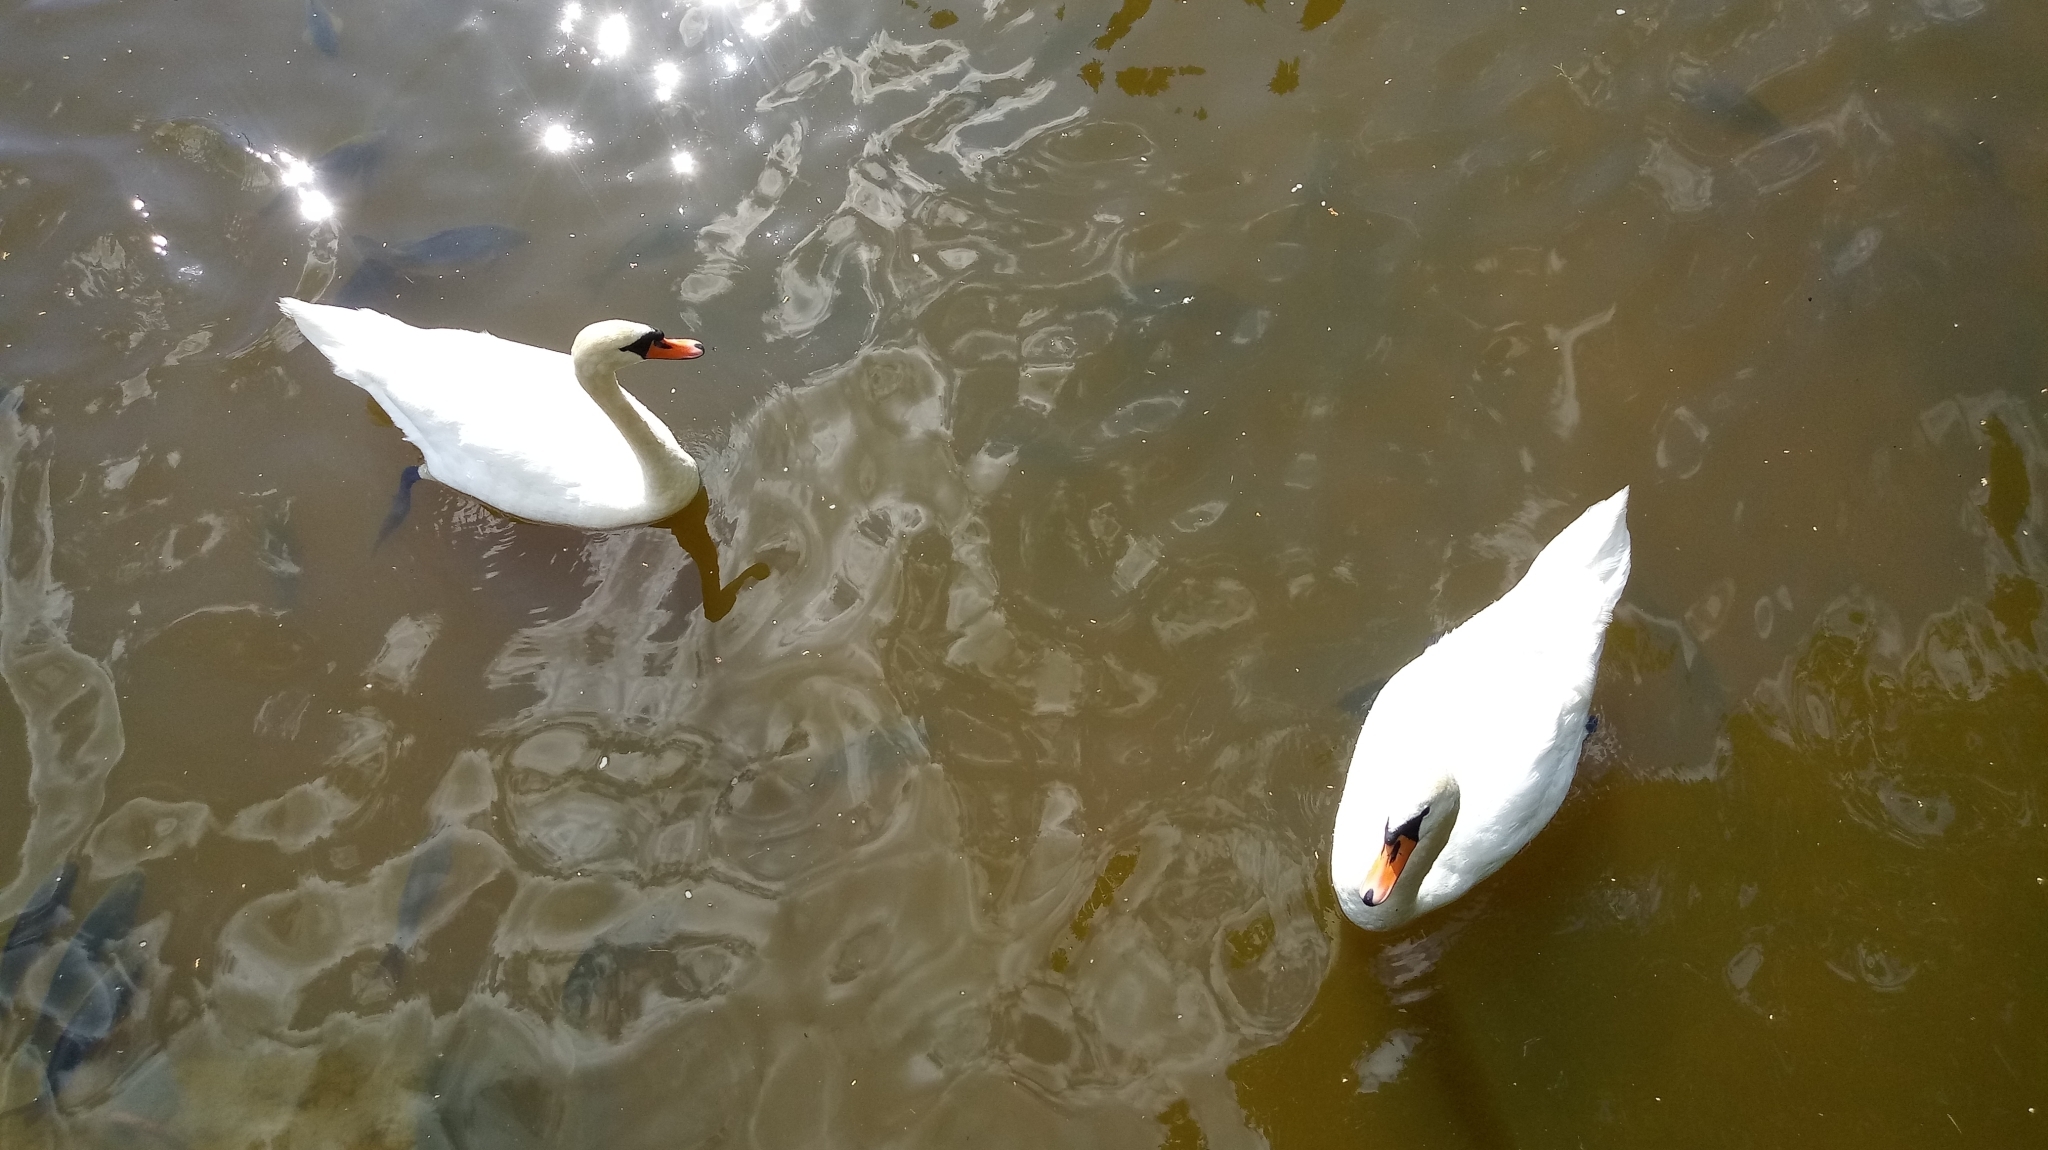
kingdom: Animalia
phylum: Chordata
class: Aves
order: Anseriformes
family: Anatidae
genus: Cygnus
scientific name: Cygnus olor
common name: Mute swan
